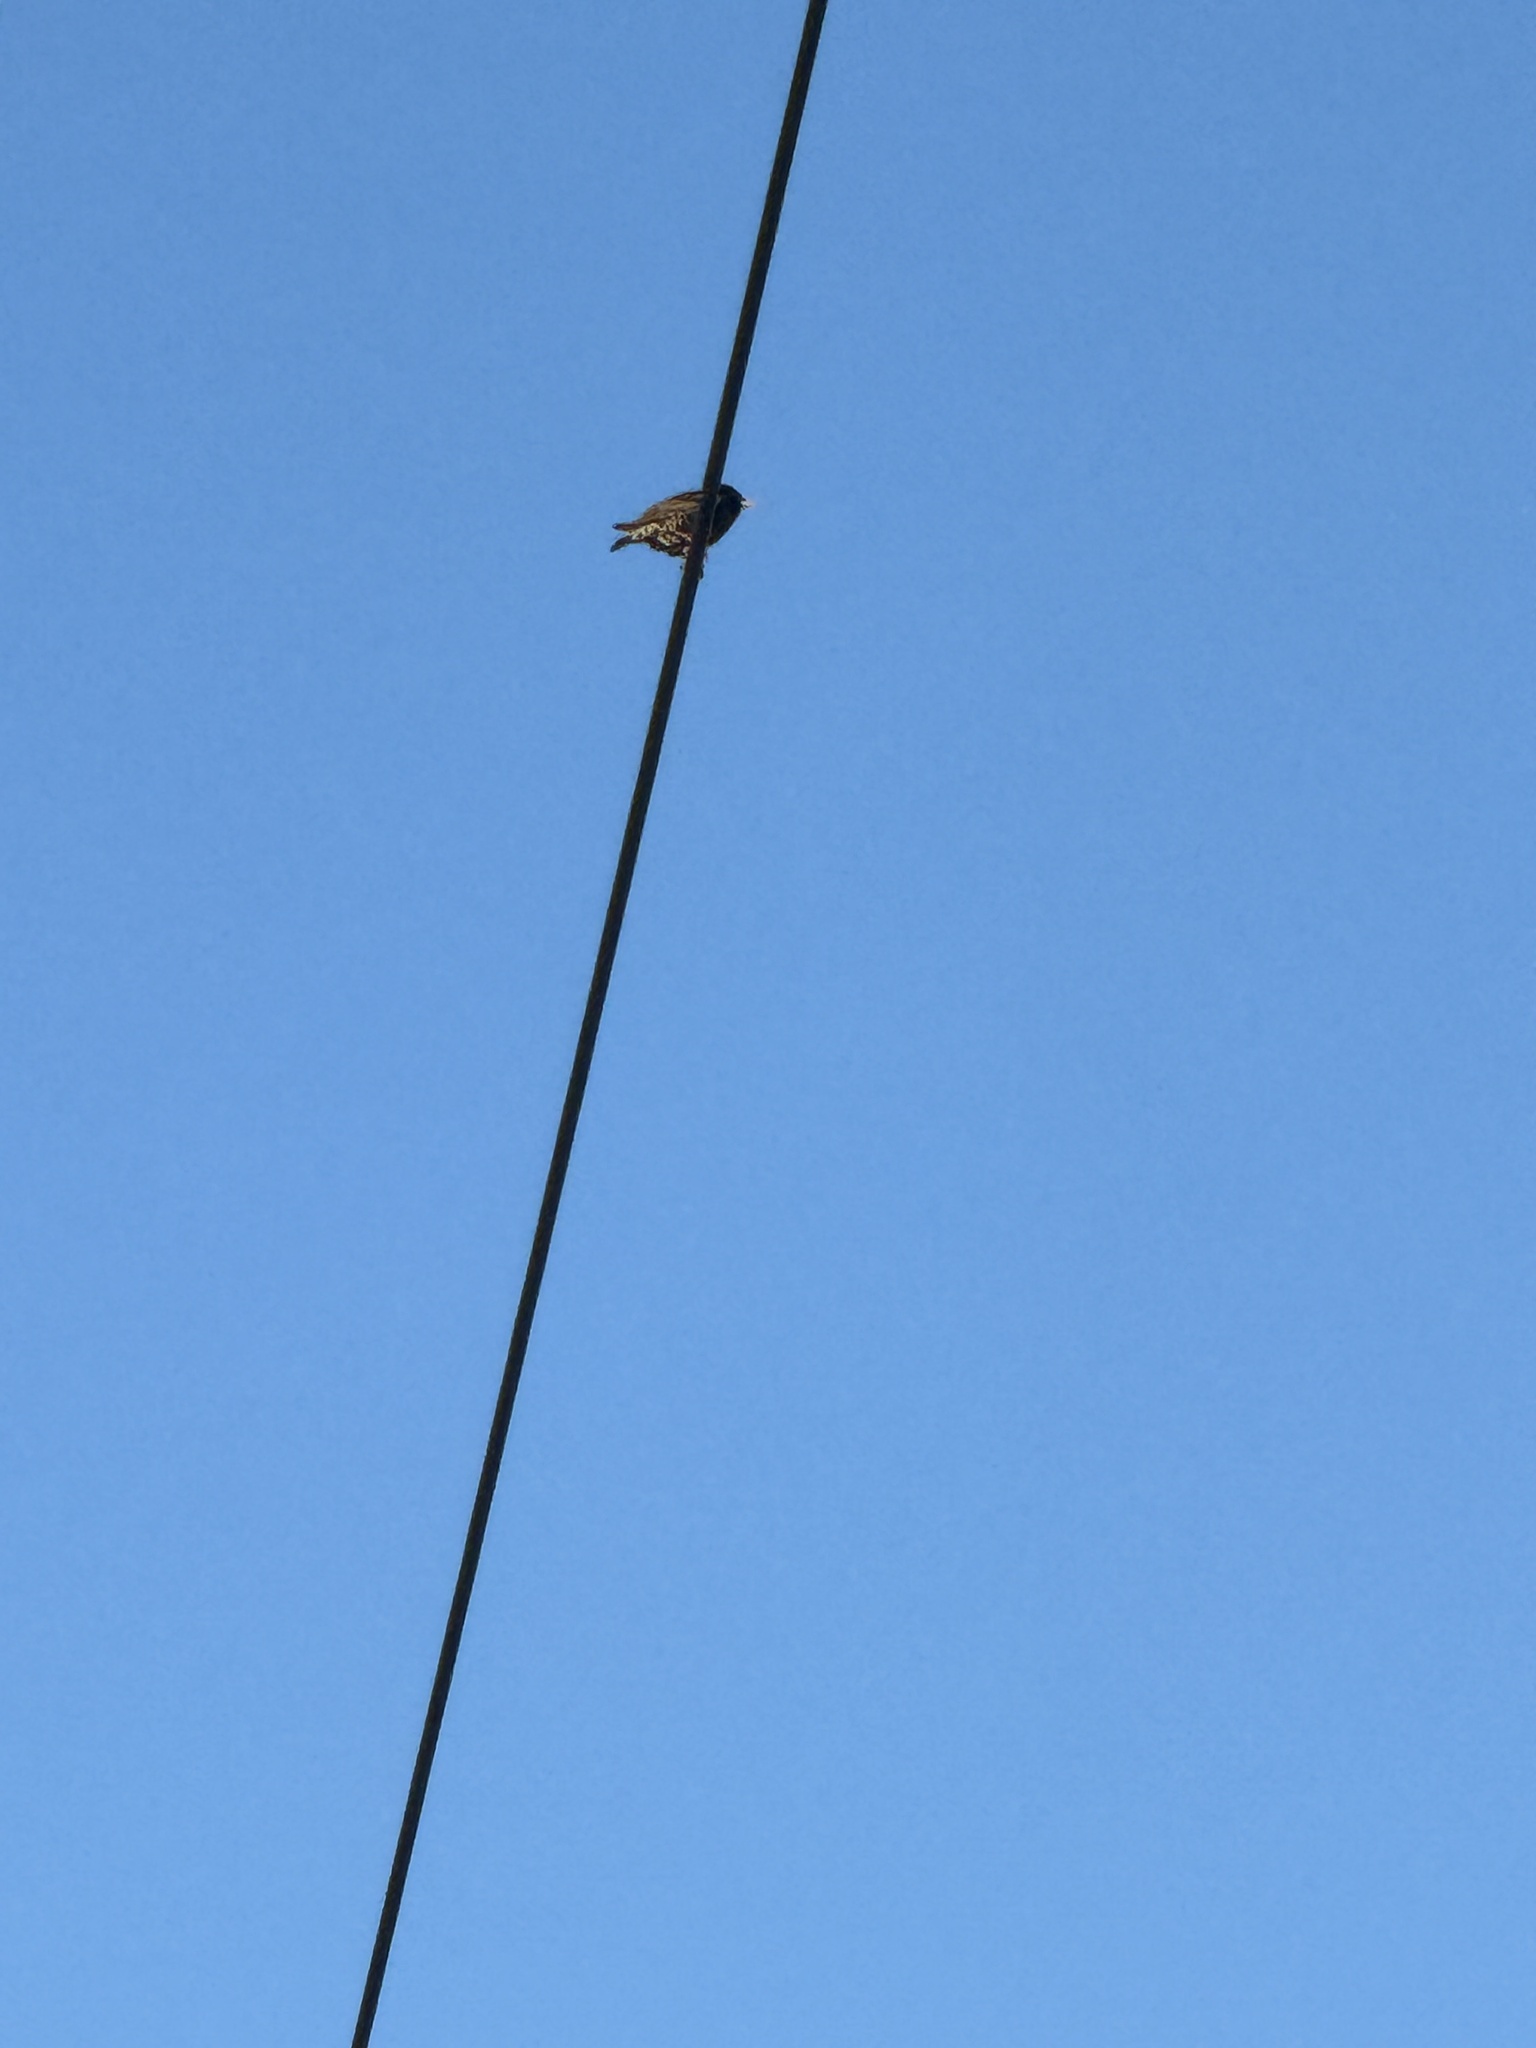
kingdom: Animalia
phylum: Chordata
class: Aves
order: Passeriformes
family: Sturnidae
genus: Sturnus
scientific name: Sturnus vulgaris
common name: Common starling
